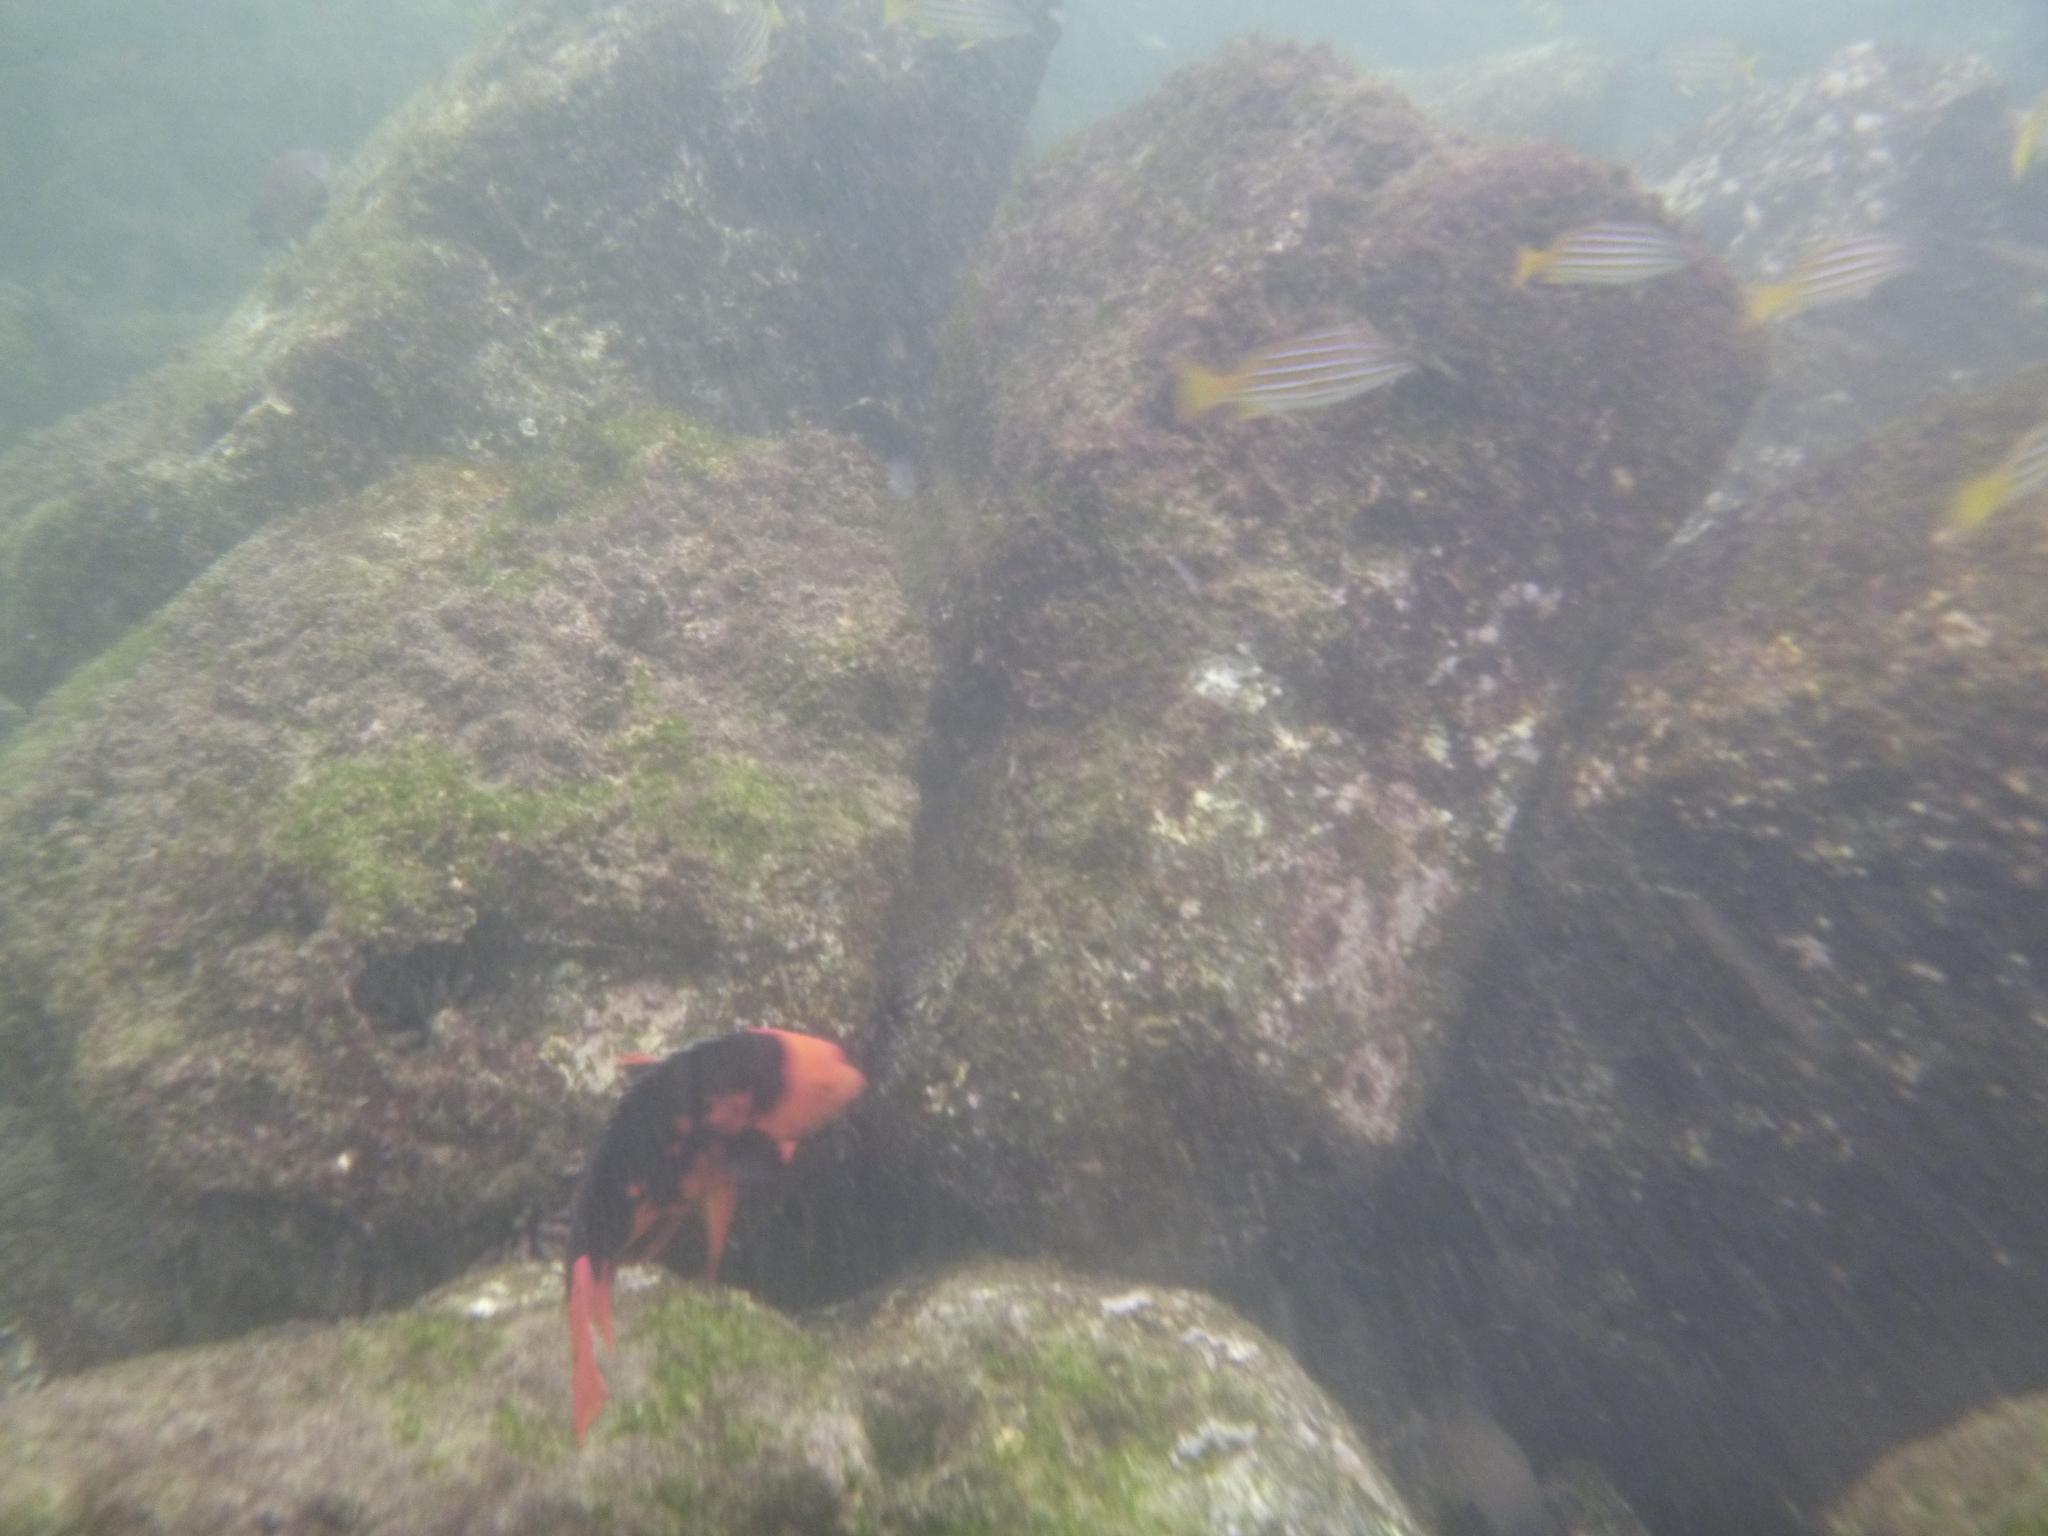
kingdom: Animalia
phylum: Chordata
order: Perciformes
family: Labridae
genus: Bodianus
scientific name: Bodianus eclancheri
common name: Harlequin wrasse
